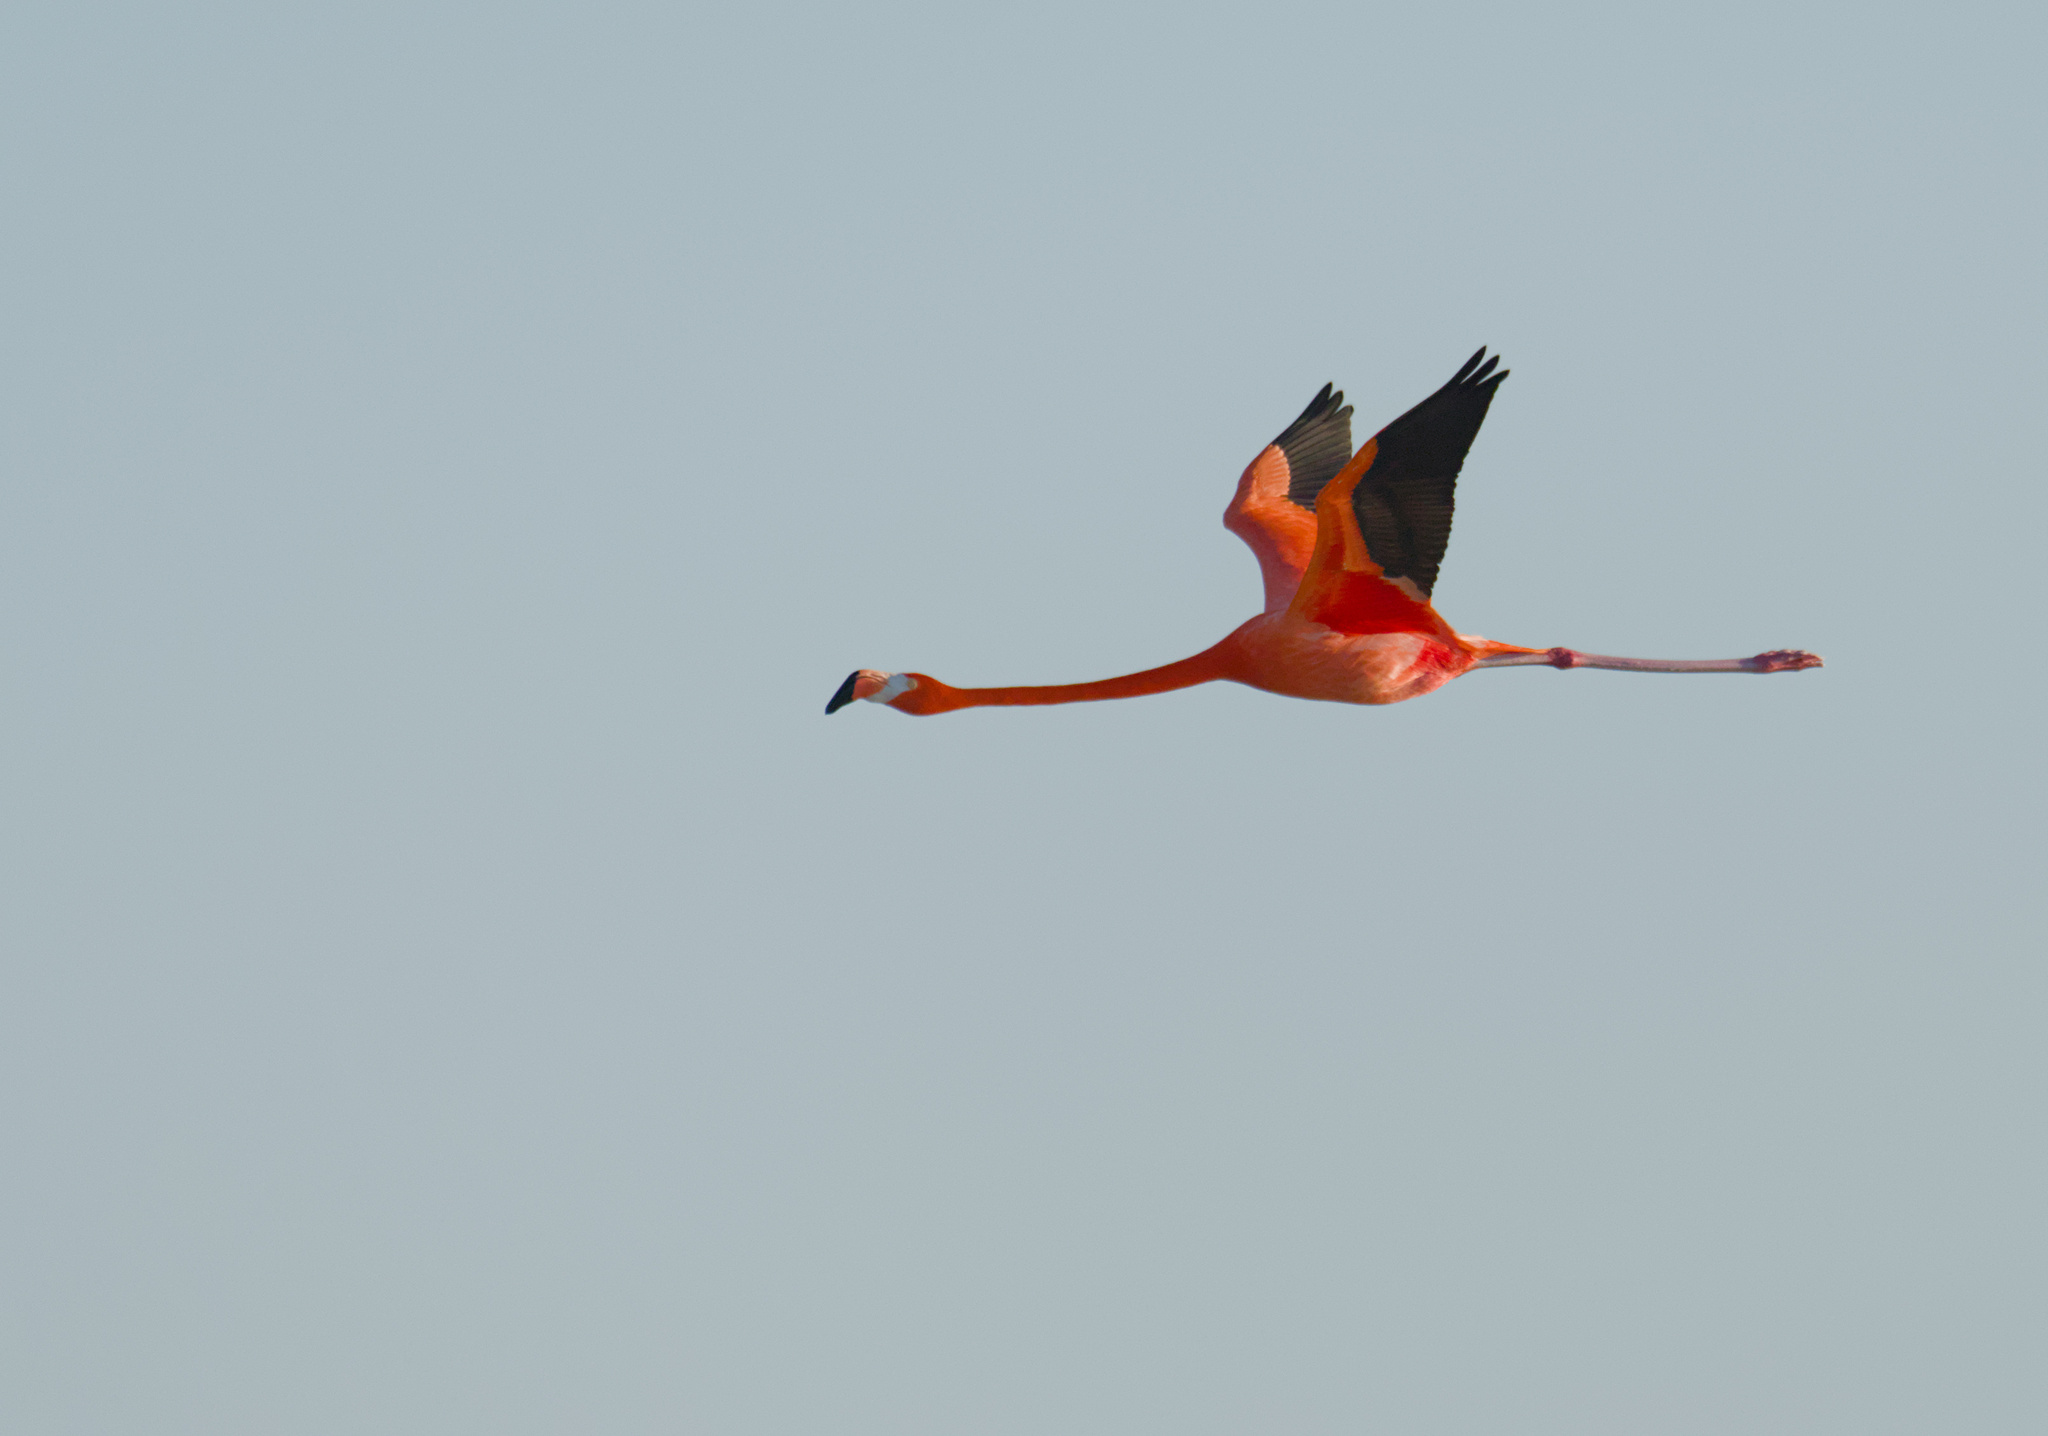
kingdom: Animalia
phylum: Chordata
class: Aves
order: Phoenicopteriformes
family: Phoenicopteridae
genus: Phoenicopterus
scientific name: Phoenicopterus ruber
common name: American flamingo
